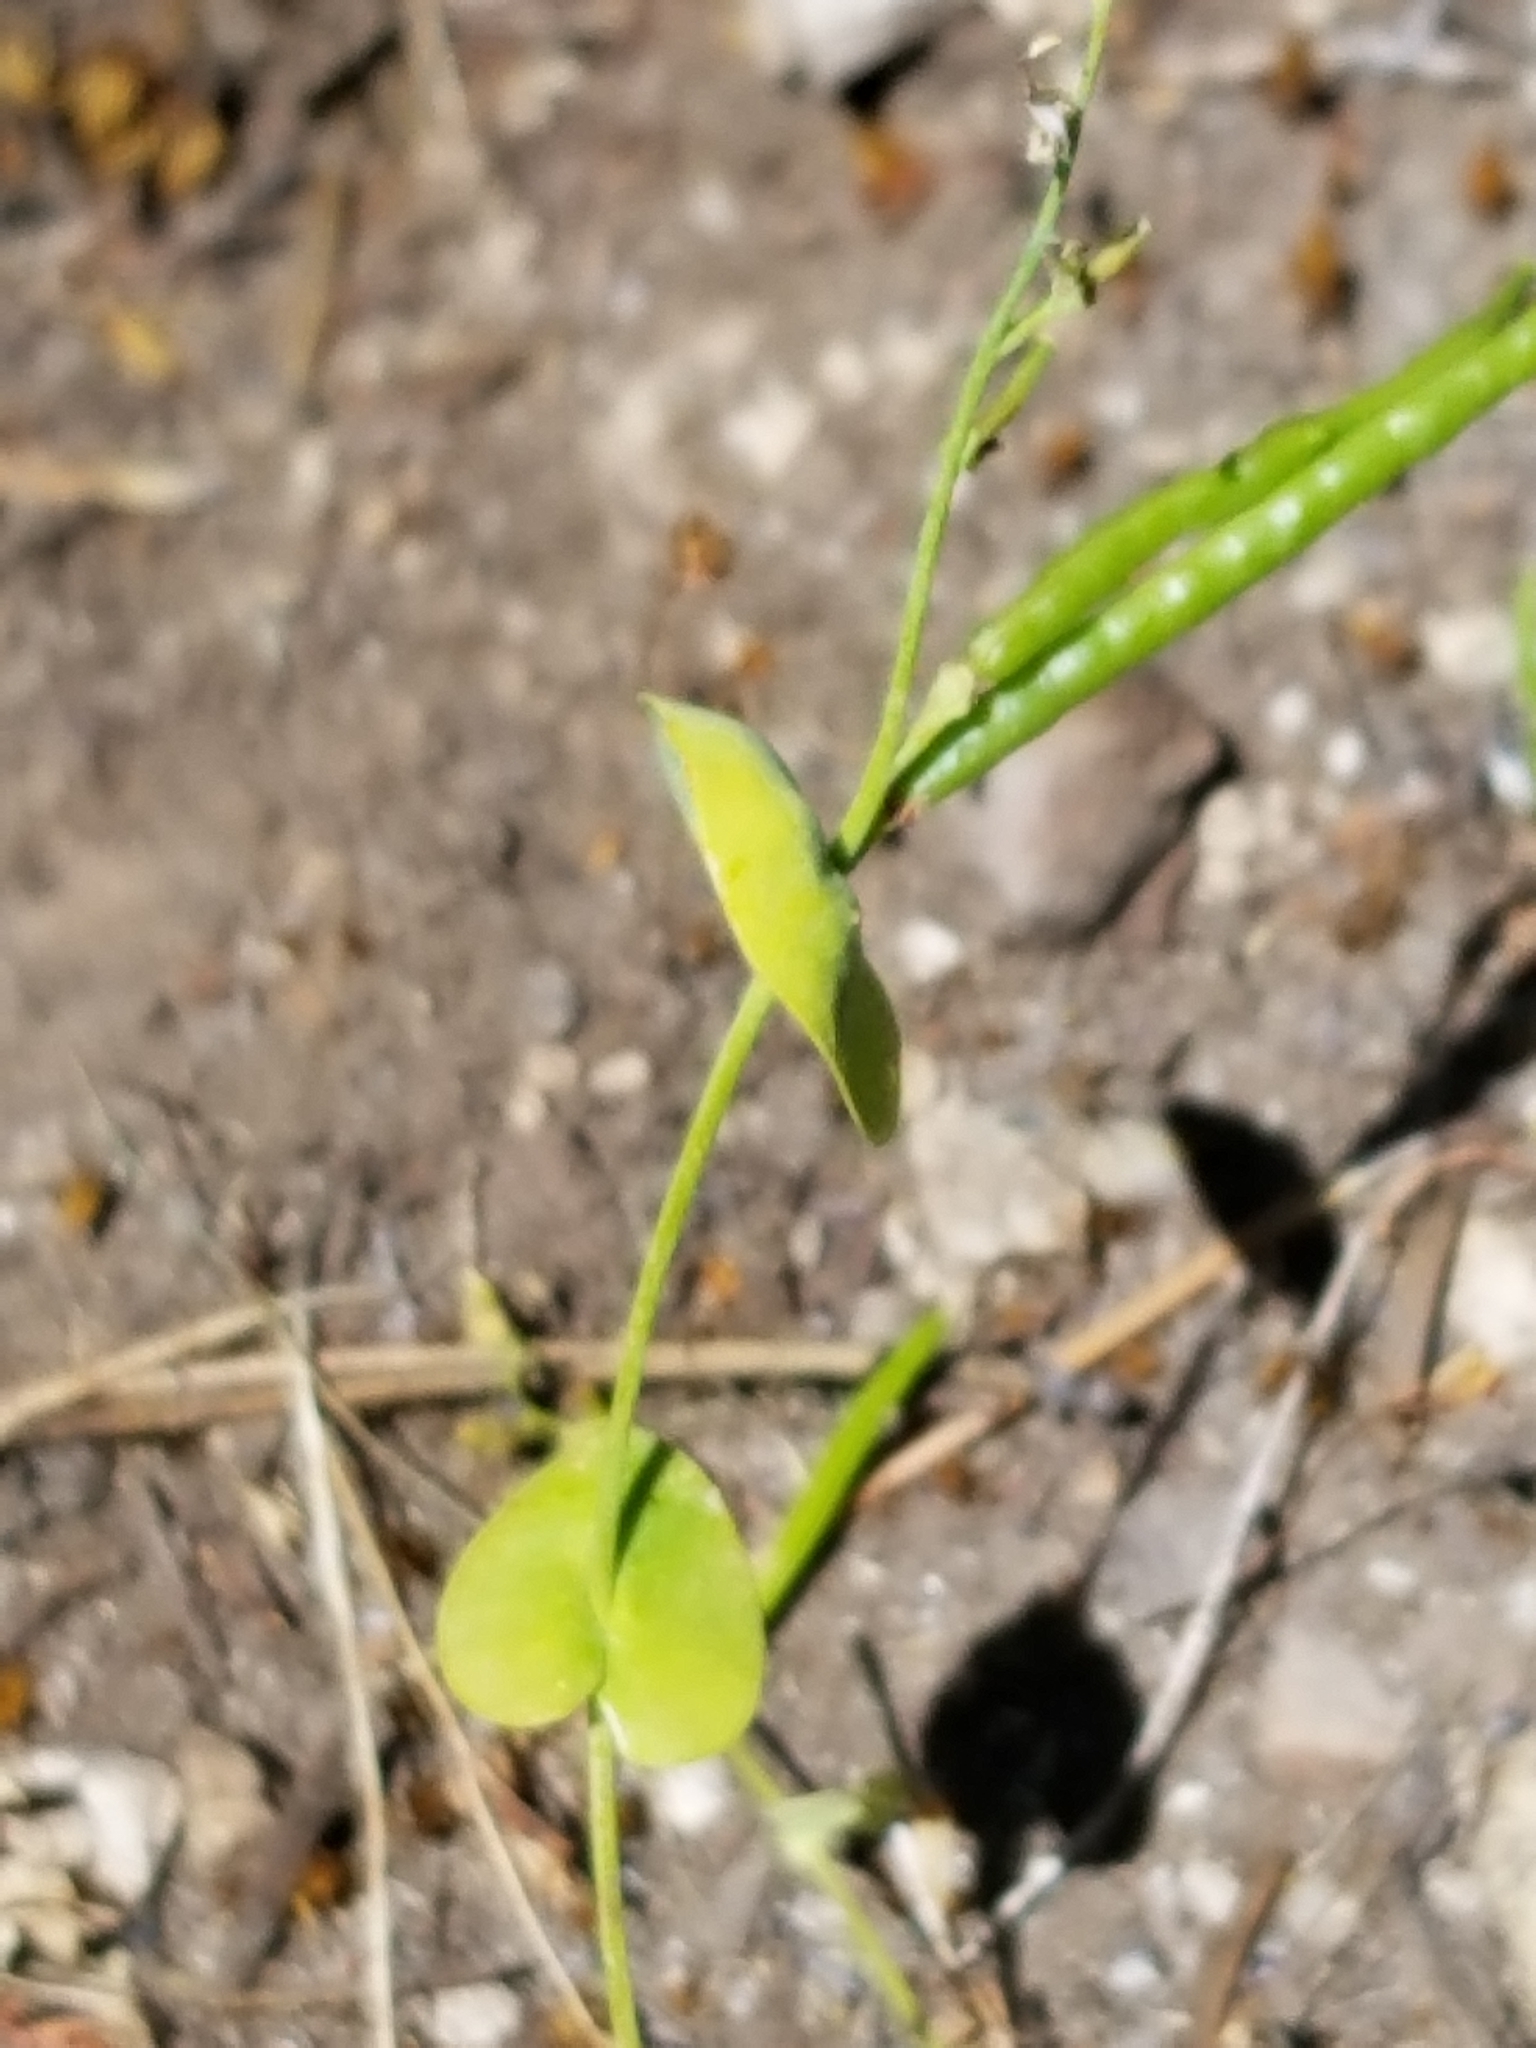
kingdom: Plantae
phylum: Tracheophyta
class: Magnoliopsida
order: Brassicales
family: Brassicaceae
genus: Streptanthus
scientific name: Streptanthus tortuosus
